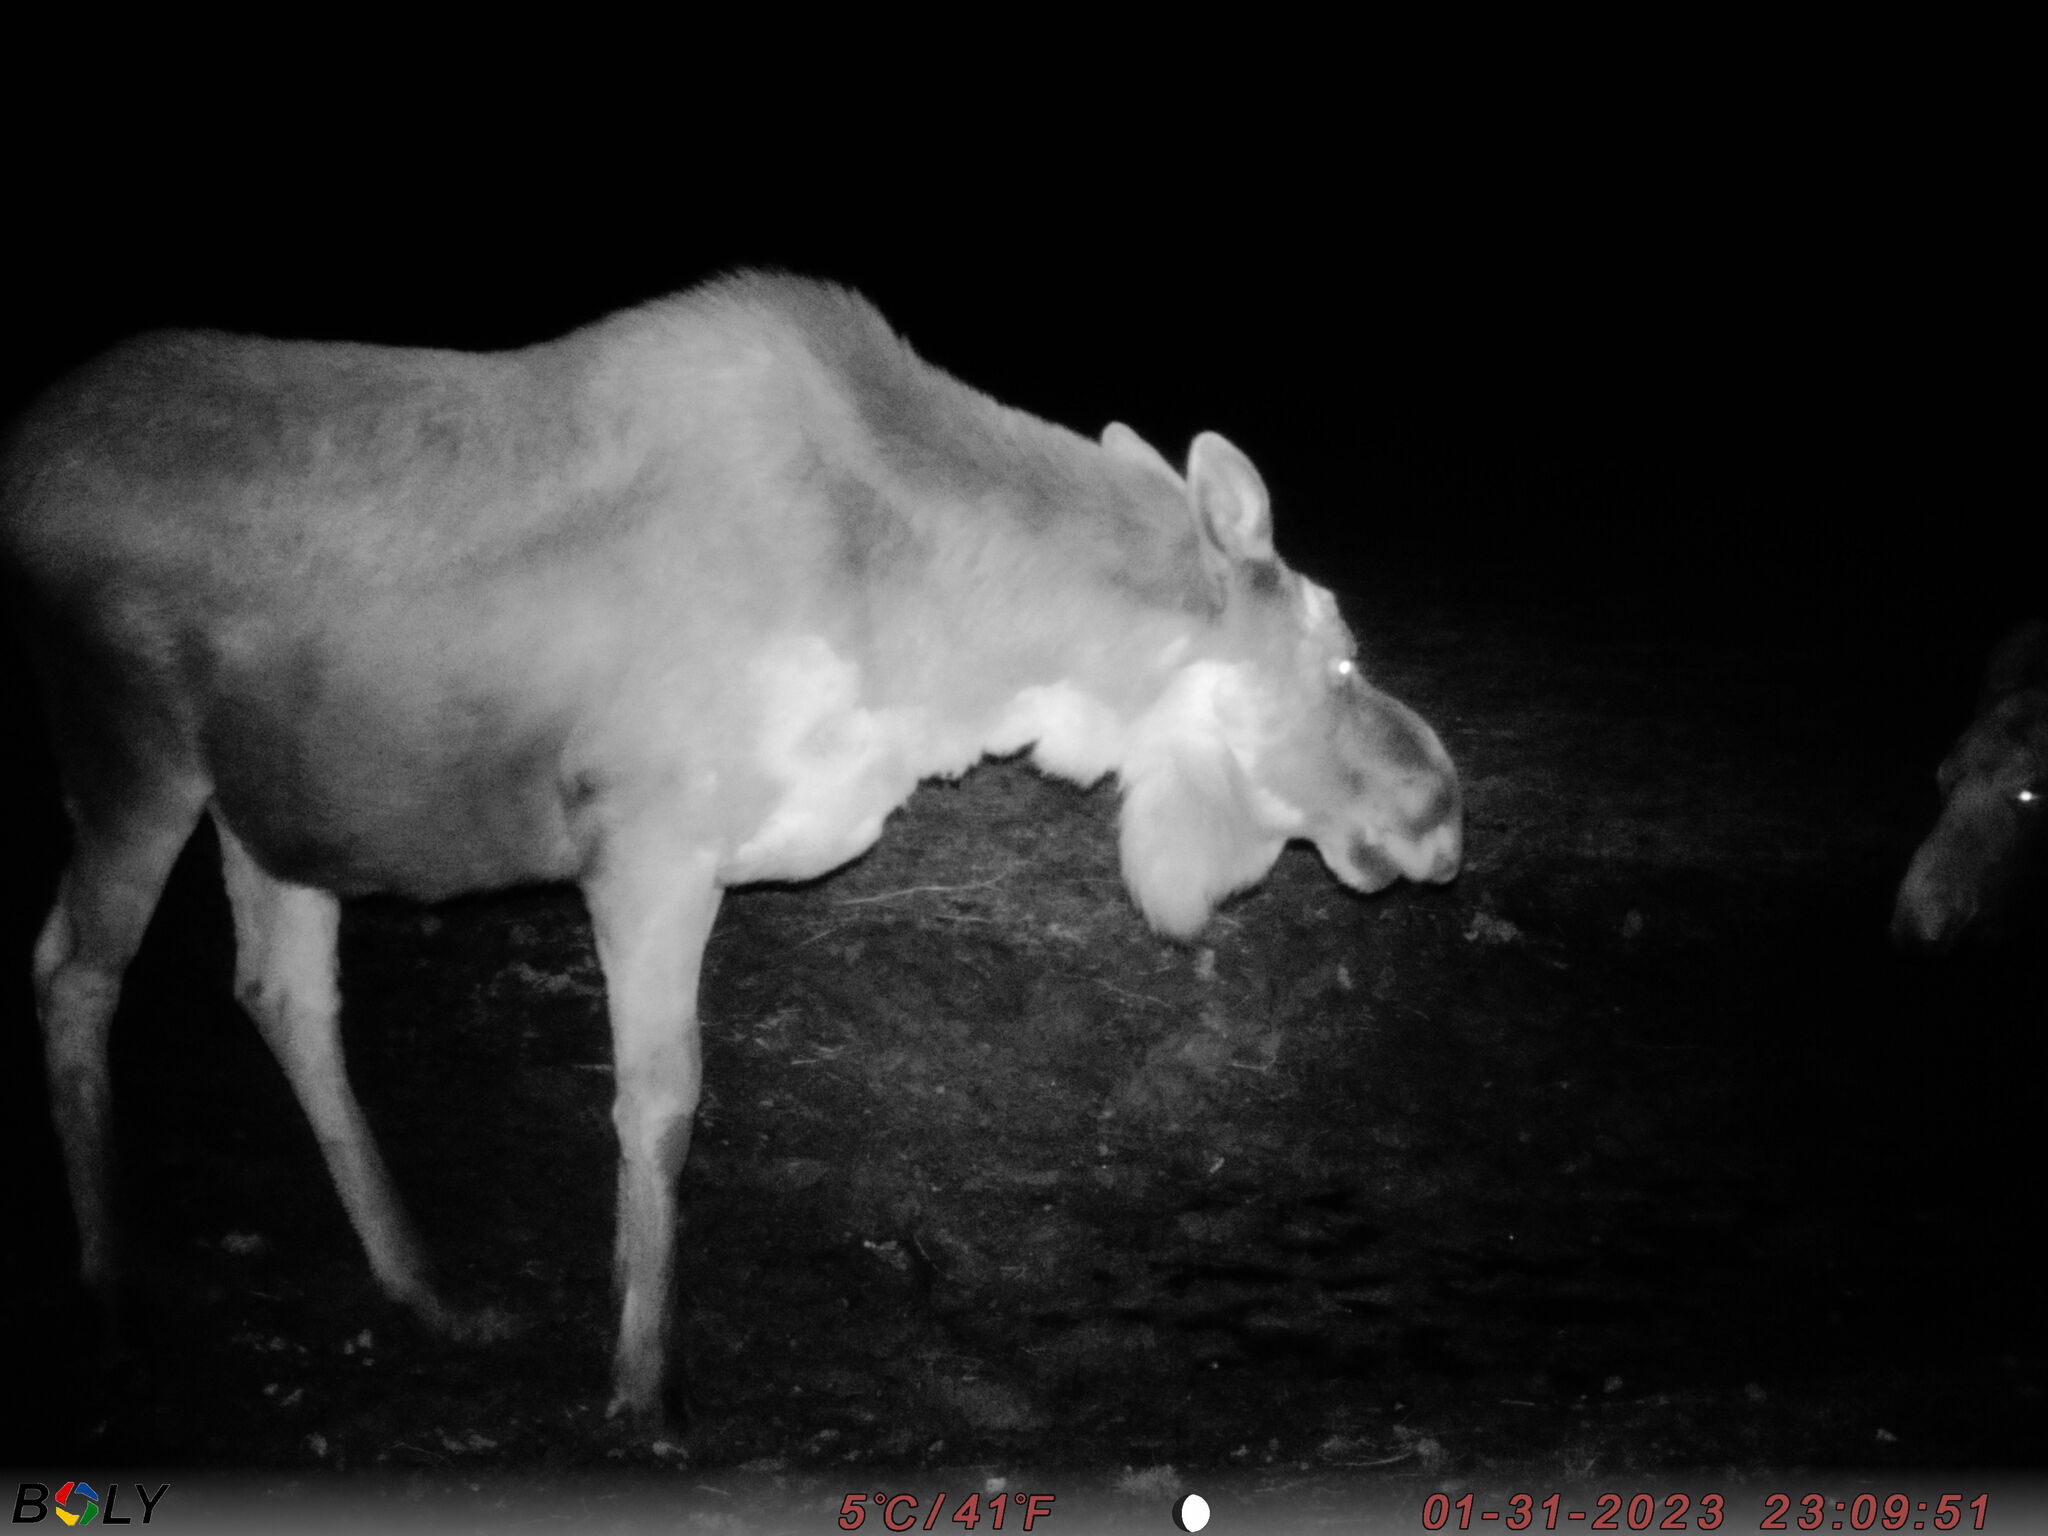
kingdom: Animalia
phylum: Chordata
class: Mammalia
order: Artiodactyla
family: Cervidae
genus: Alces
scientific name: Alces alces
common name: Moose
